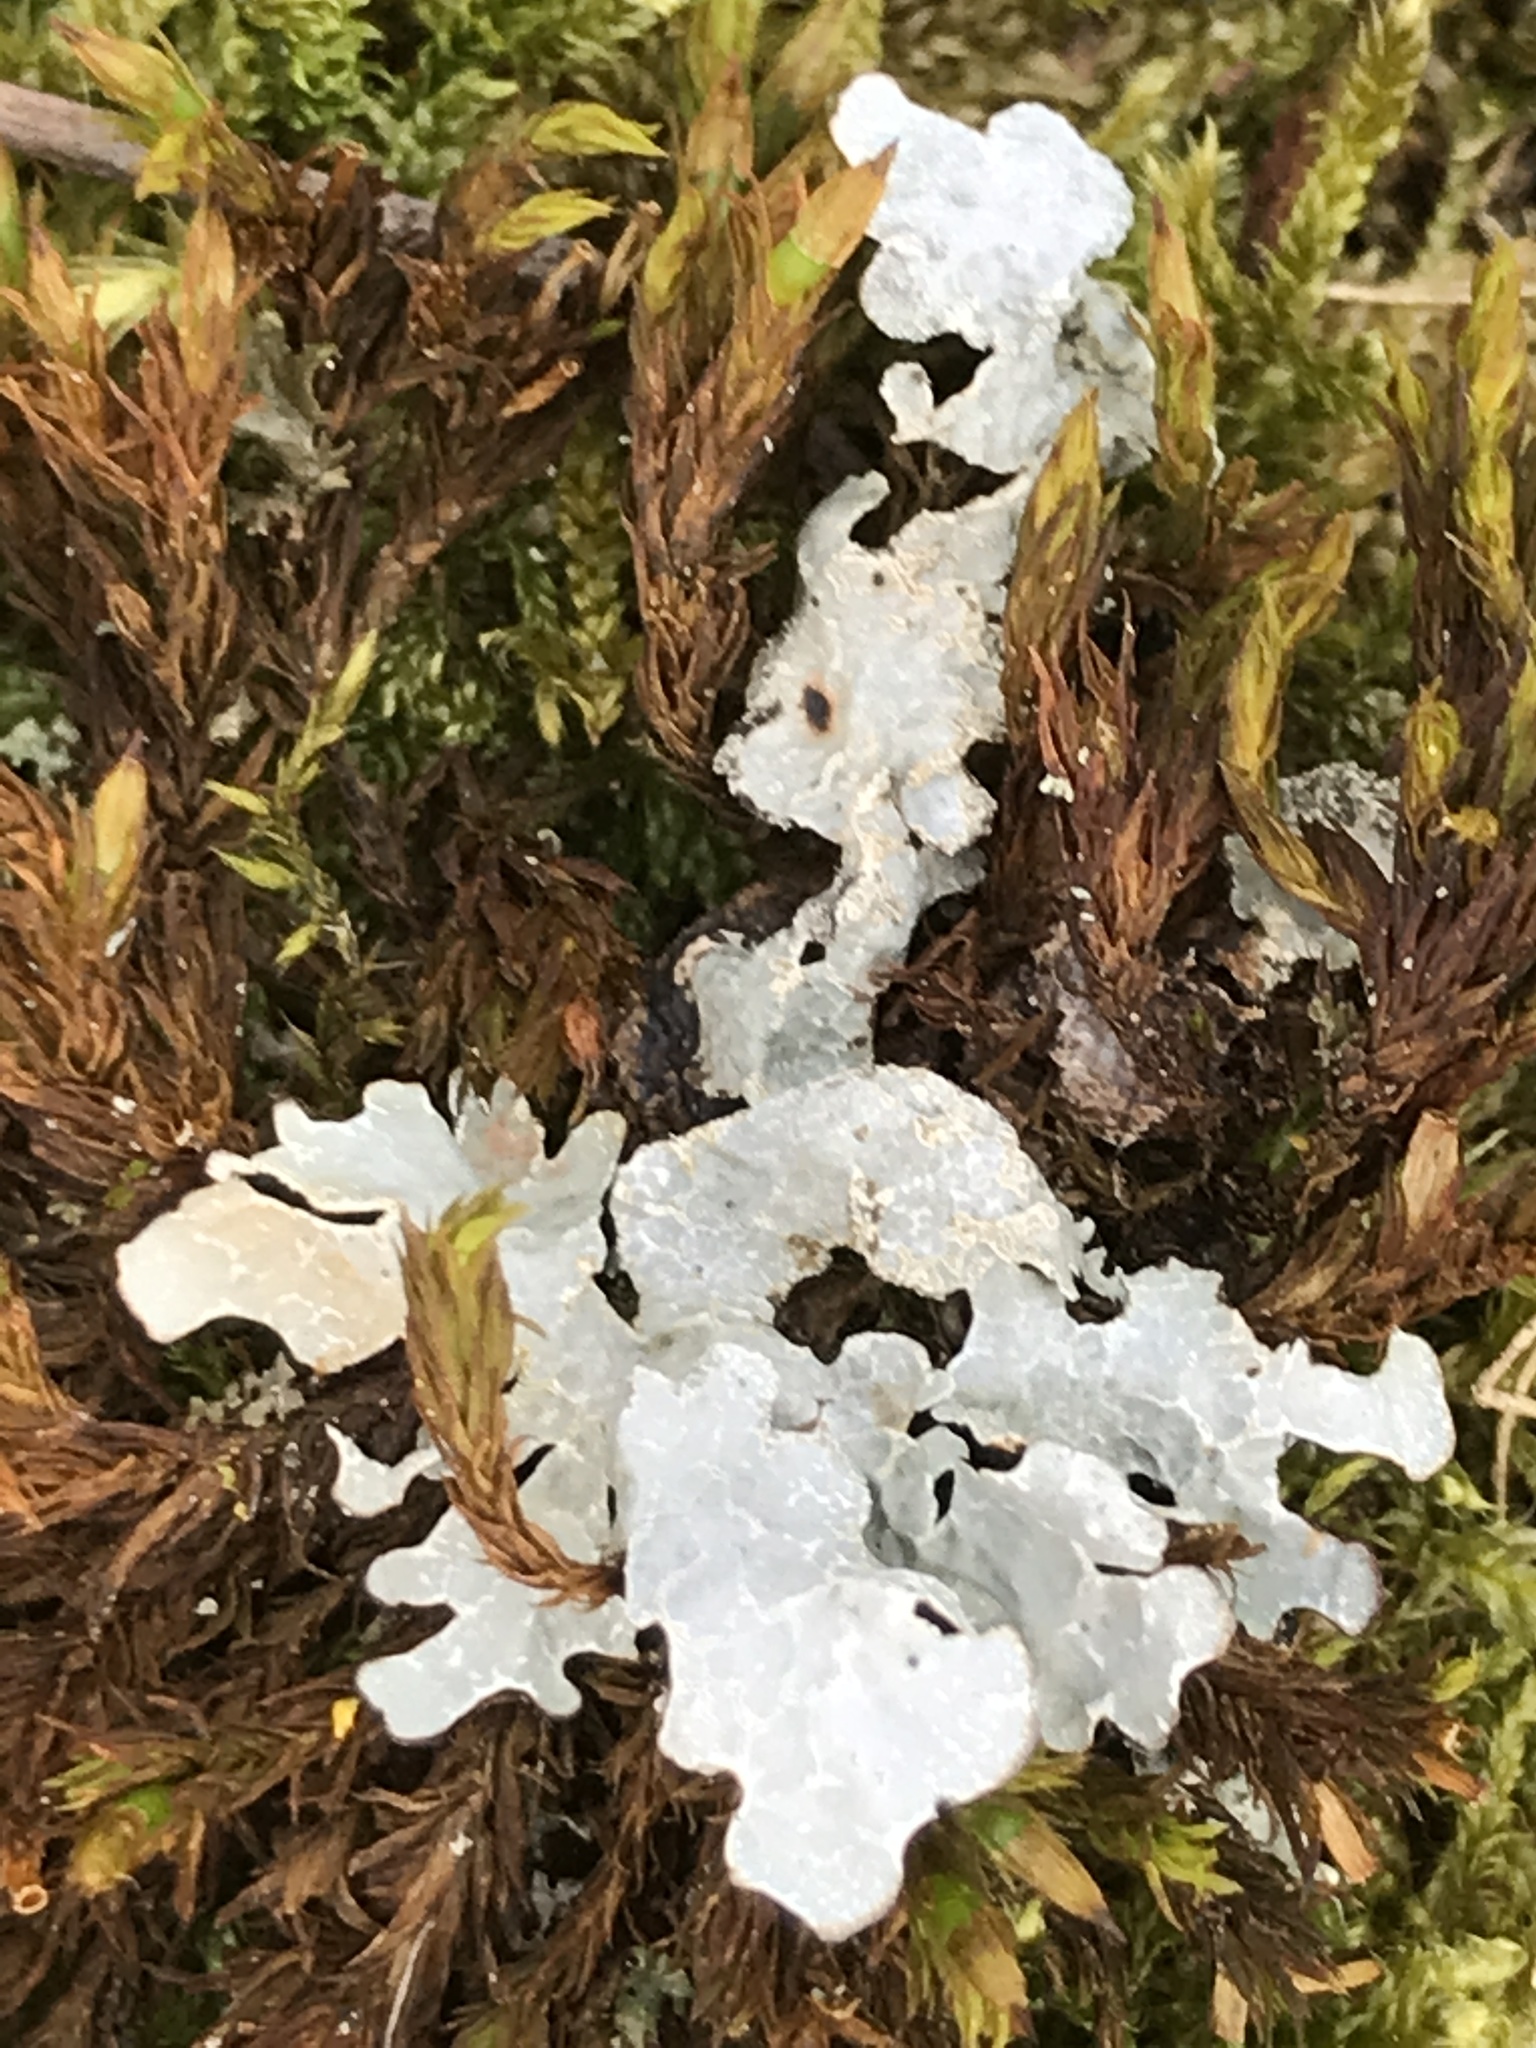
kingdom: Fungi
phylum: Ascomycota
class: Lecanoromycetes
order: Lecanorales
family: Parmeliaceae
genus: Parmelia
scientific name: Parmelia sulcata
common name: Netted shield lichen
